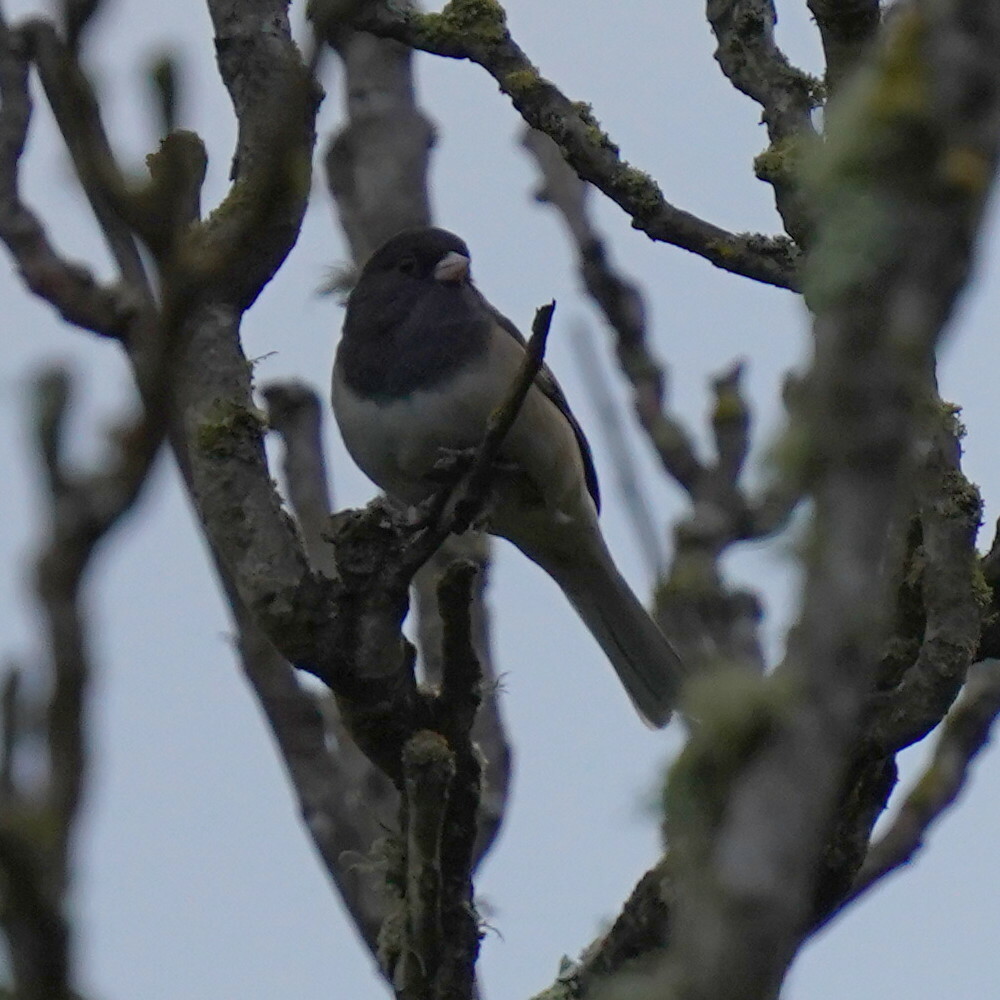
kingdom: Animalia
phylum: Chordata
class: Aves
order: Passeriformes
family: Passerellidae
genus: Junco
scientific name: Junco hyemalis
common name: Dark-eyed junco
